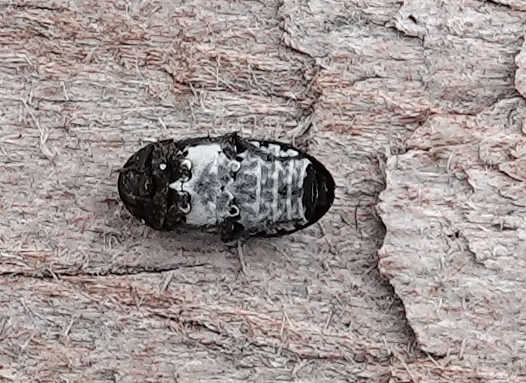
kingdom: Animalia
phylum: Arthropoda
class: Insecta
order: Coleoptera
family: Dermestidae
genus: Dermestes
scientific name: Dermestes fasciatus
